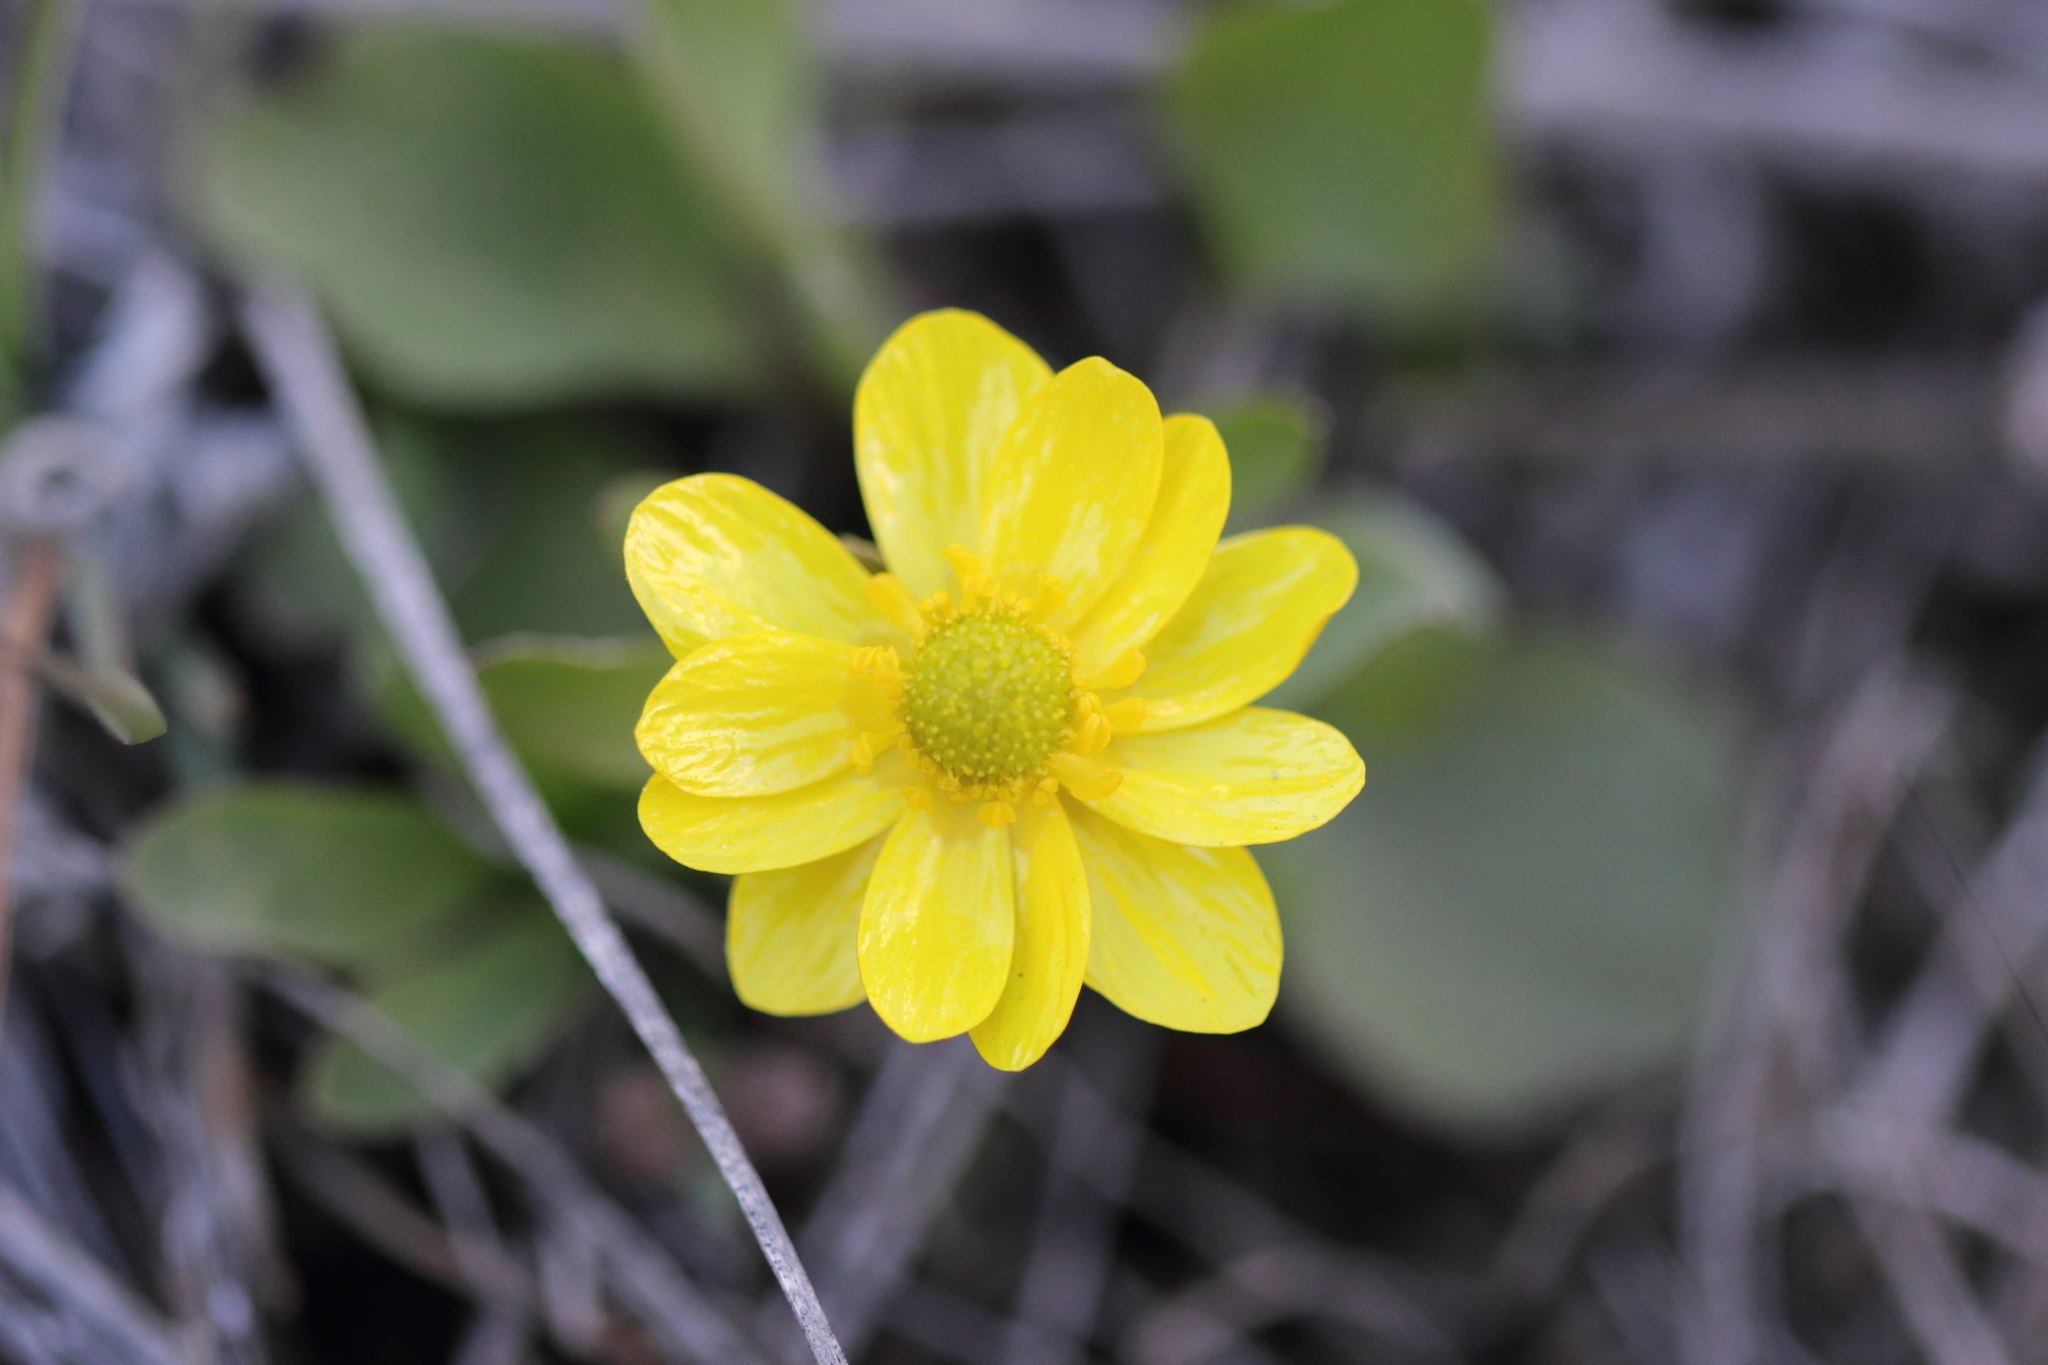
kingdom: Plantae
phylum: Tracheophyta
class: Magnoliopsida
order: Ranunculales
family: Ranunculaceae
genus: Ranunculus
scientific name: Ranunculus glaberrimus
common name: Sagebrush buttercup
